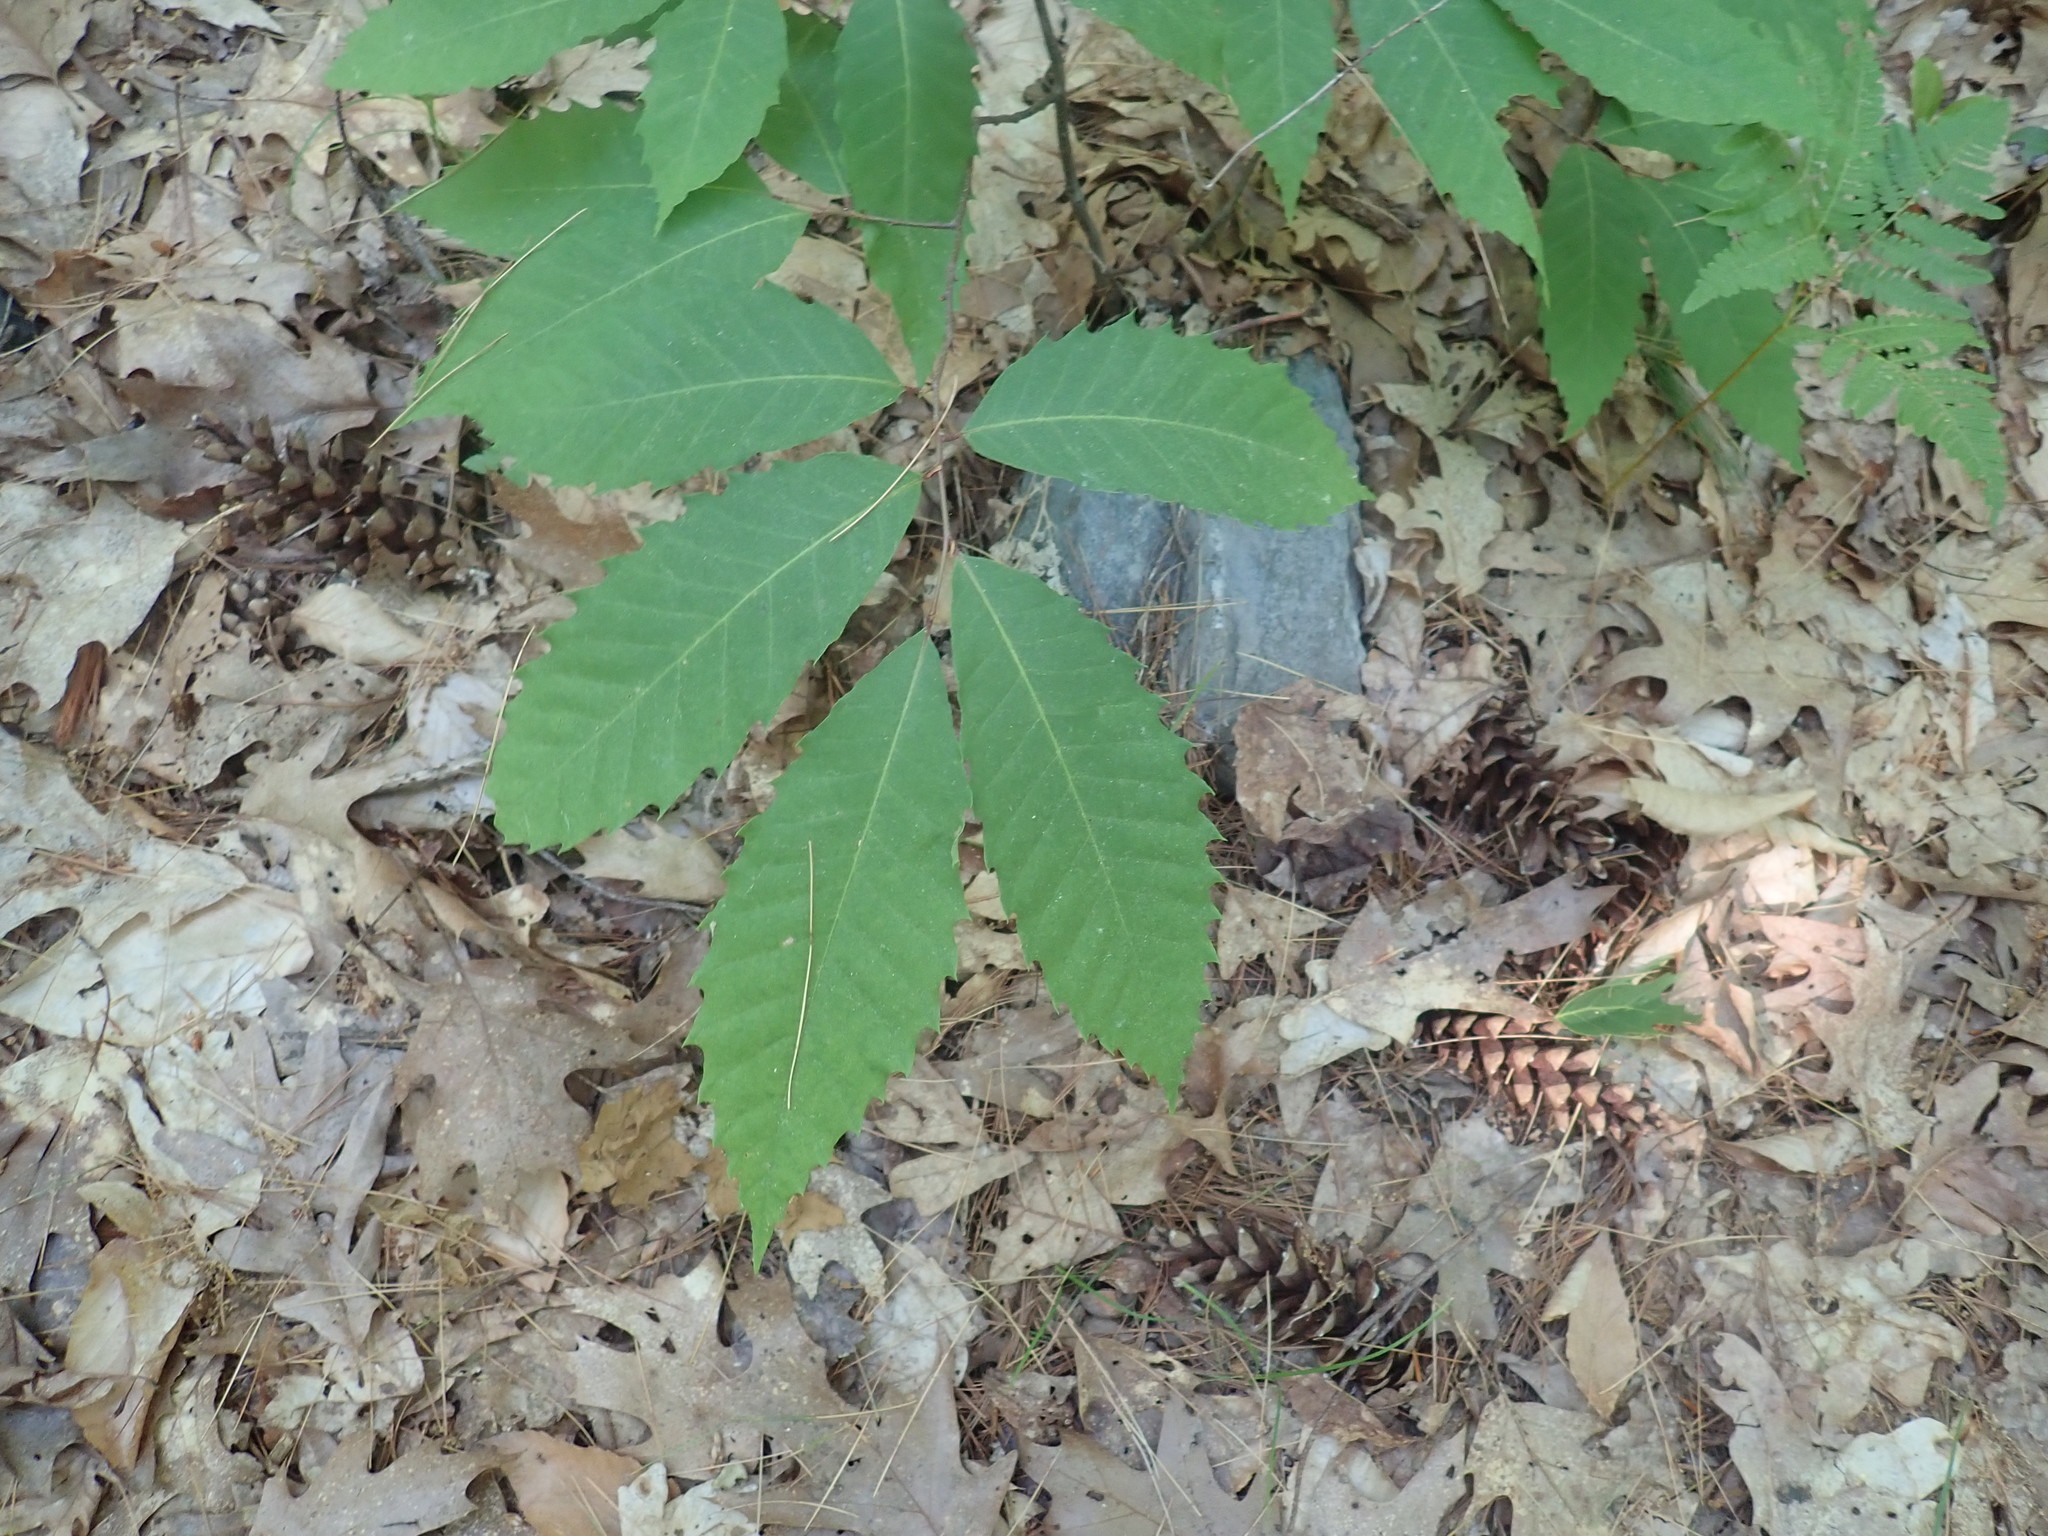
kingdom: Plantae
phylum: Tracheophyta
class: Magnoliopsida
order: Fagales
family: Fagaceae
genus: Castanea
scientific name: Castanea dentata
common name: American chestnut
